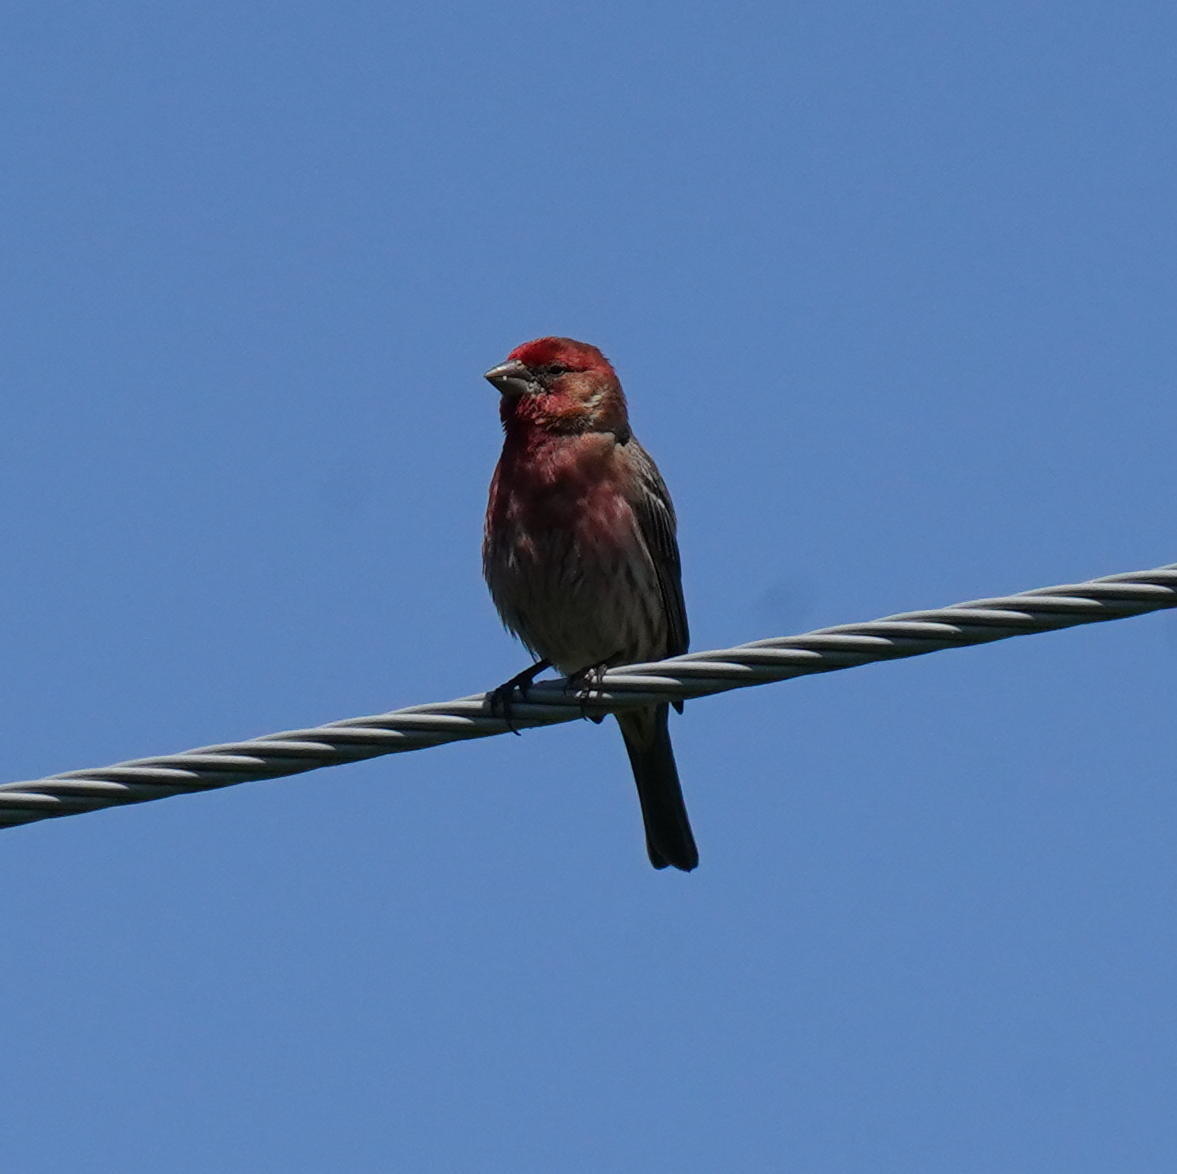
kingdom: Animalia
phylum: Chordata
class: Aves
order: Passeriformes
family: Fringillidae
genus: Haemorhous
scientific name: Haemorhous mexicanus
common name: House finch
